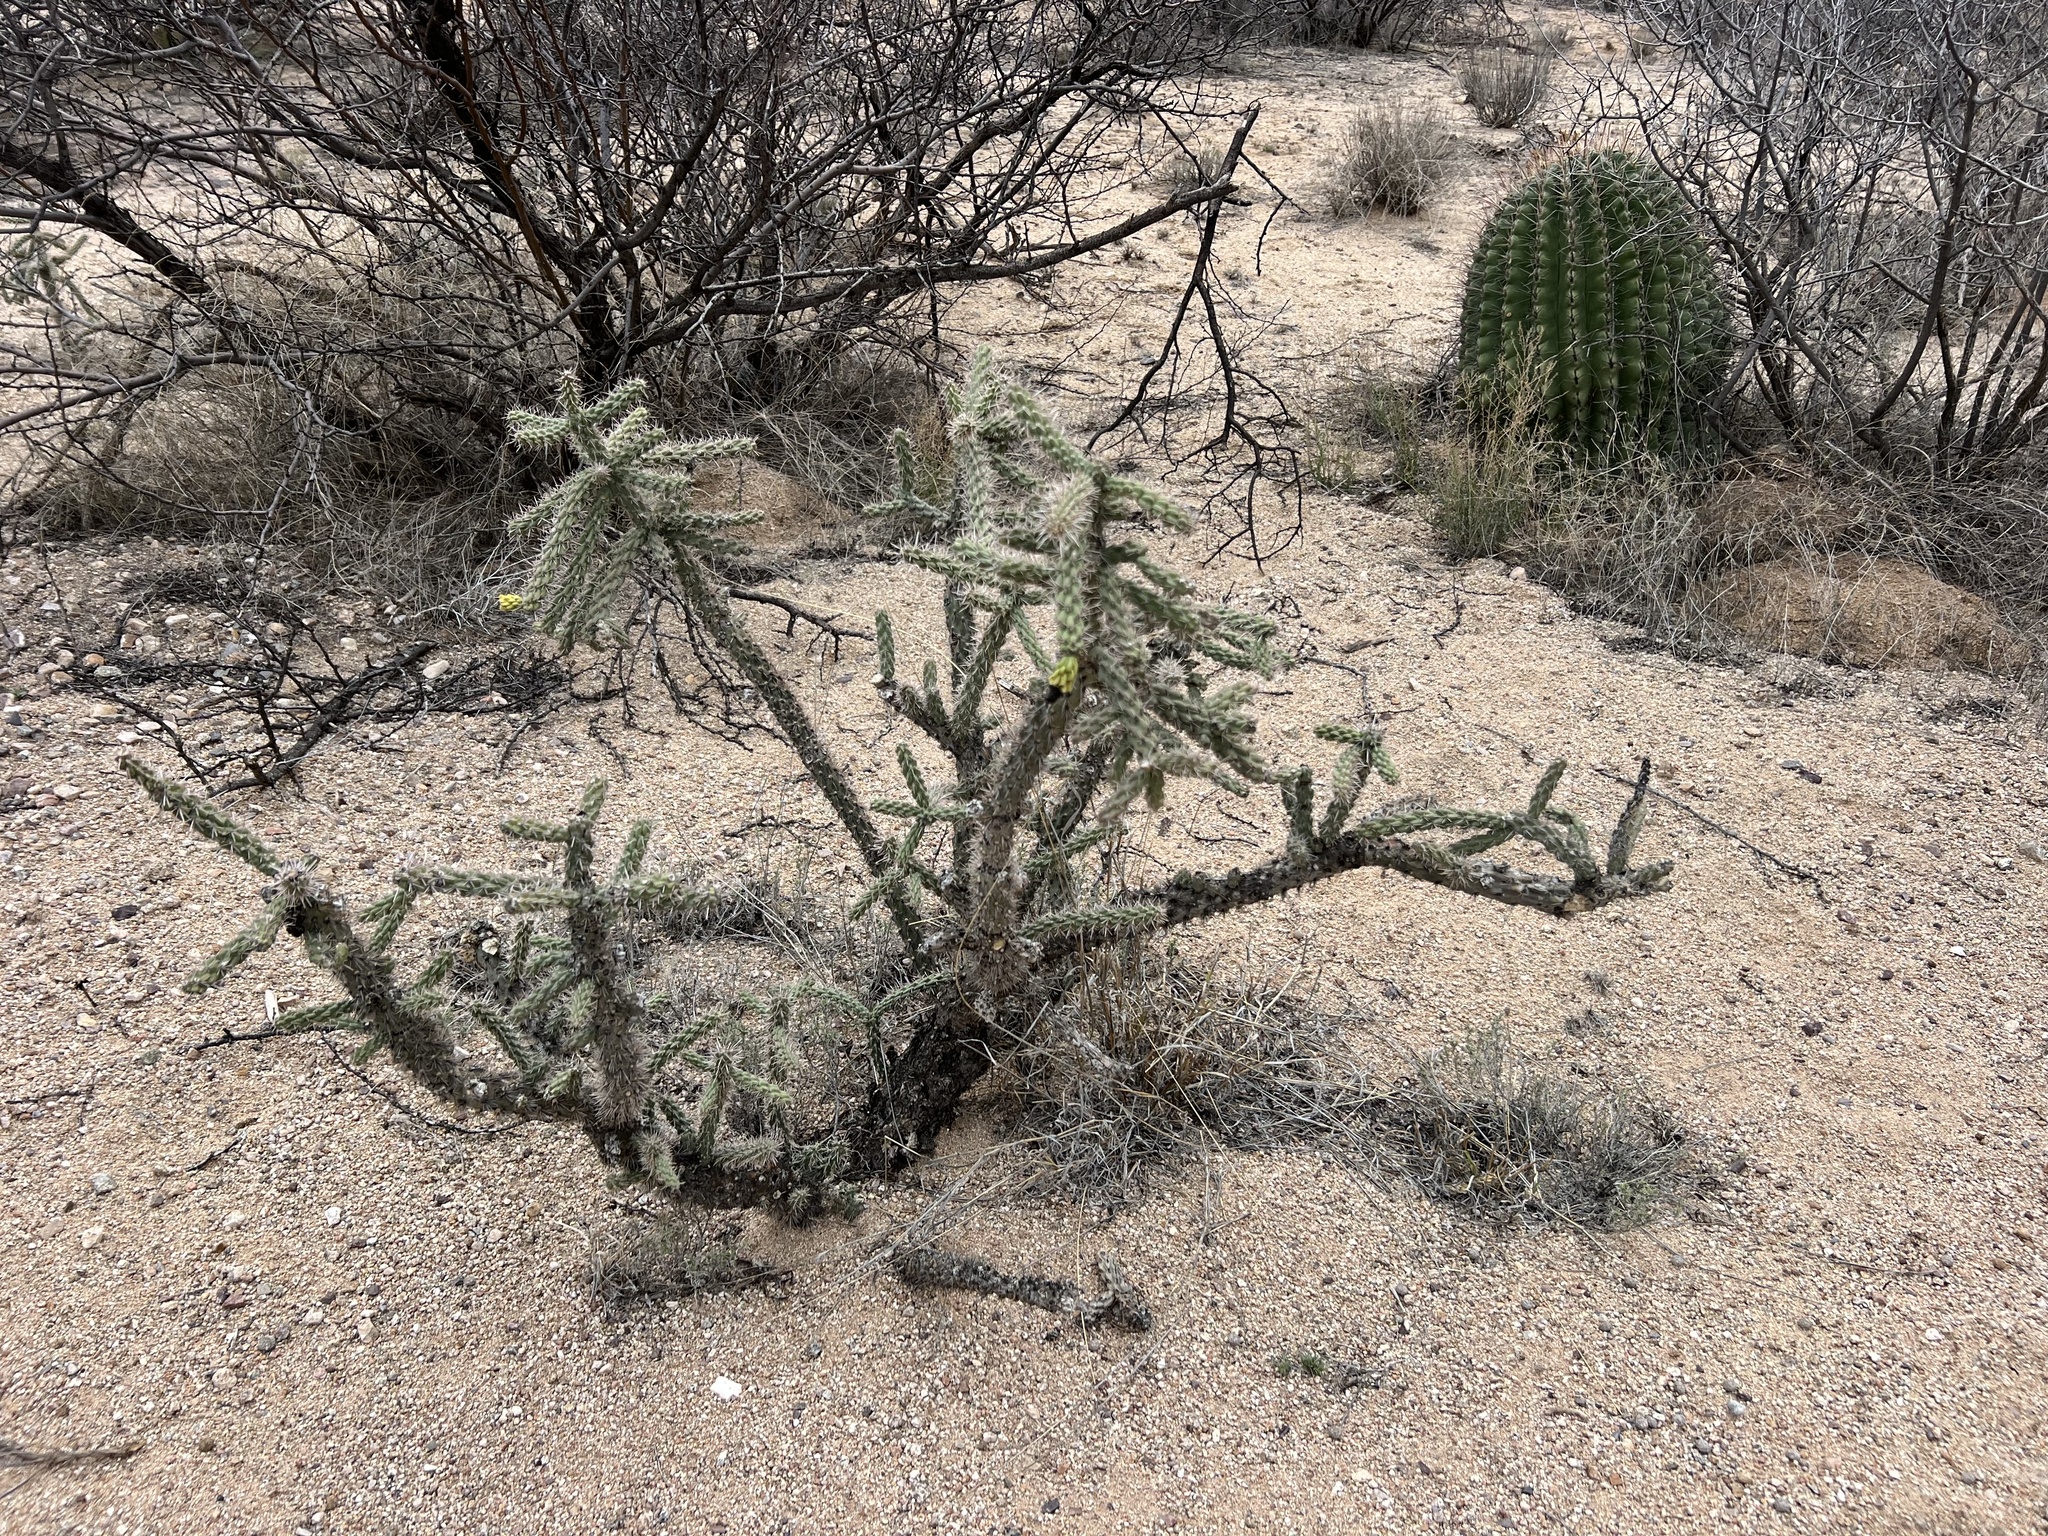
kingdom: Plantae
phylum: Tracheophyta
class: Magnoliopsida
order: Caryophyllales
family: Cactaceae
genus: Cylindropuntia
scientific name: Cylindropuntia imbricata
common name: Candelabrum cactus
